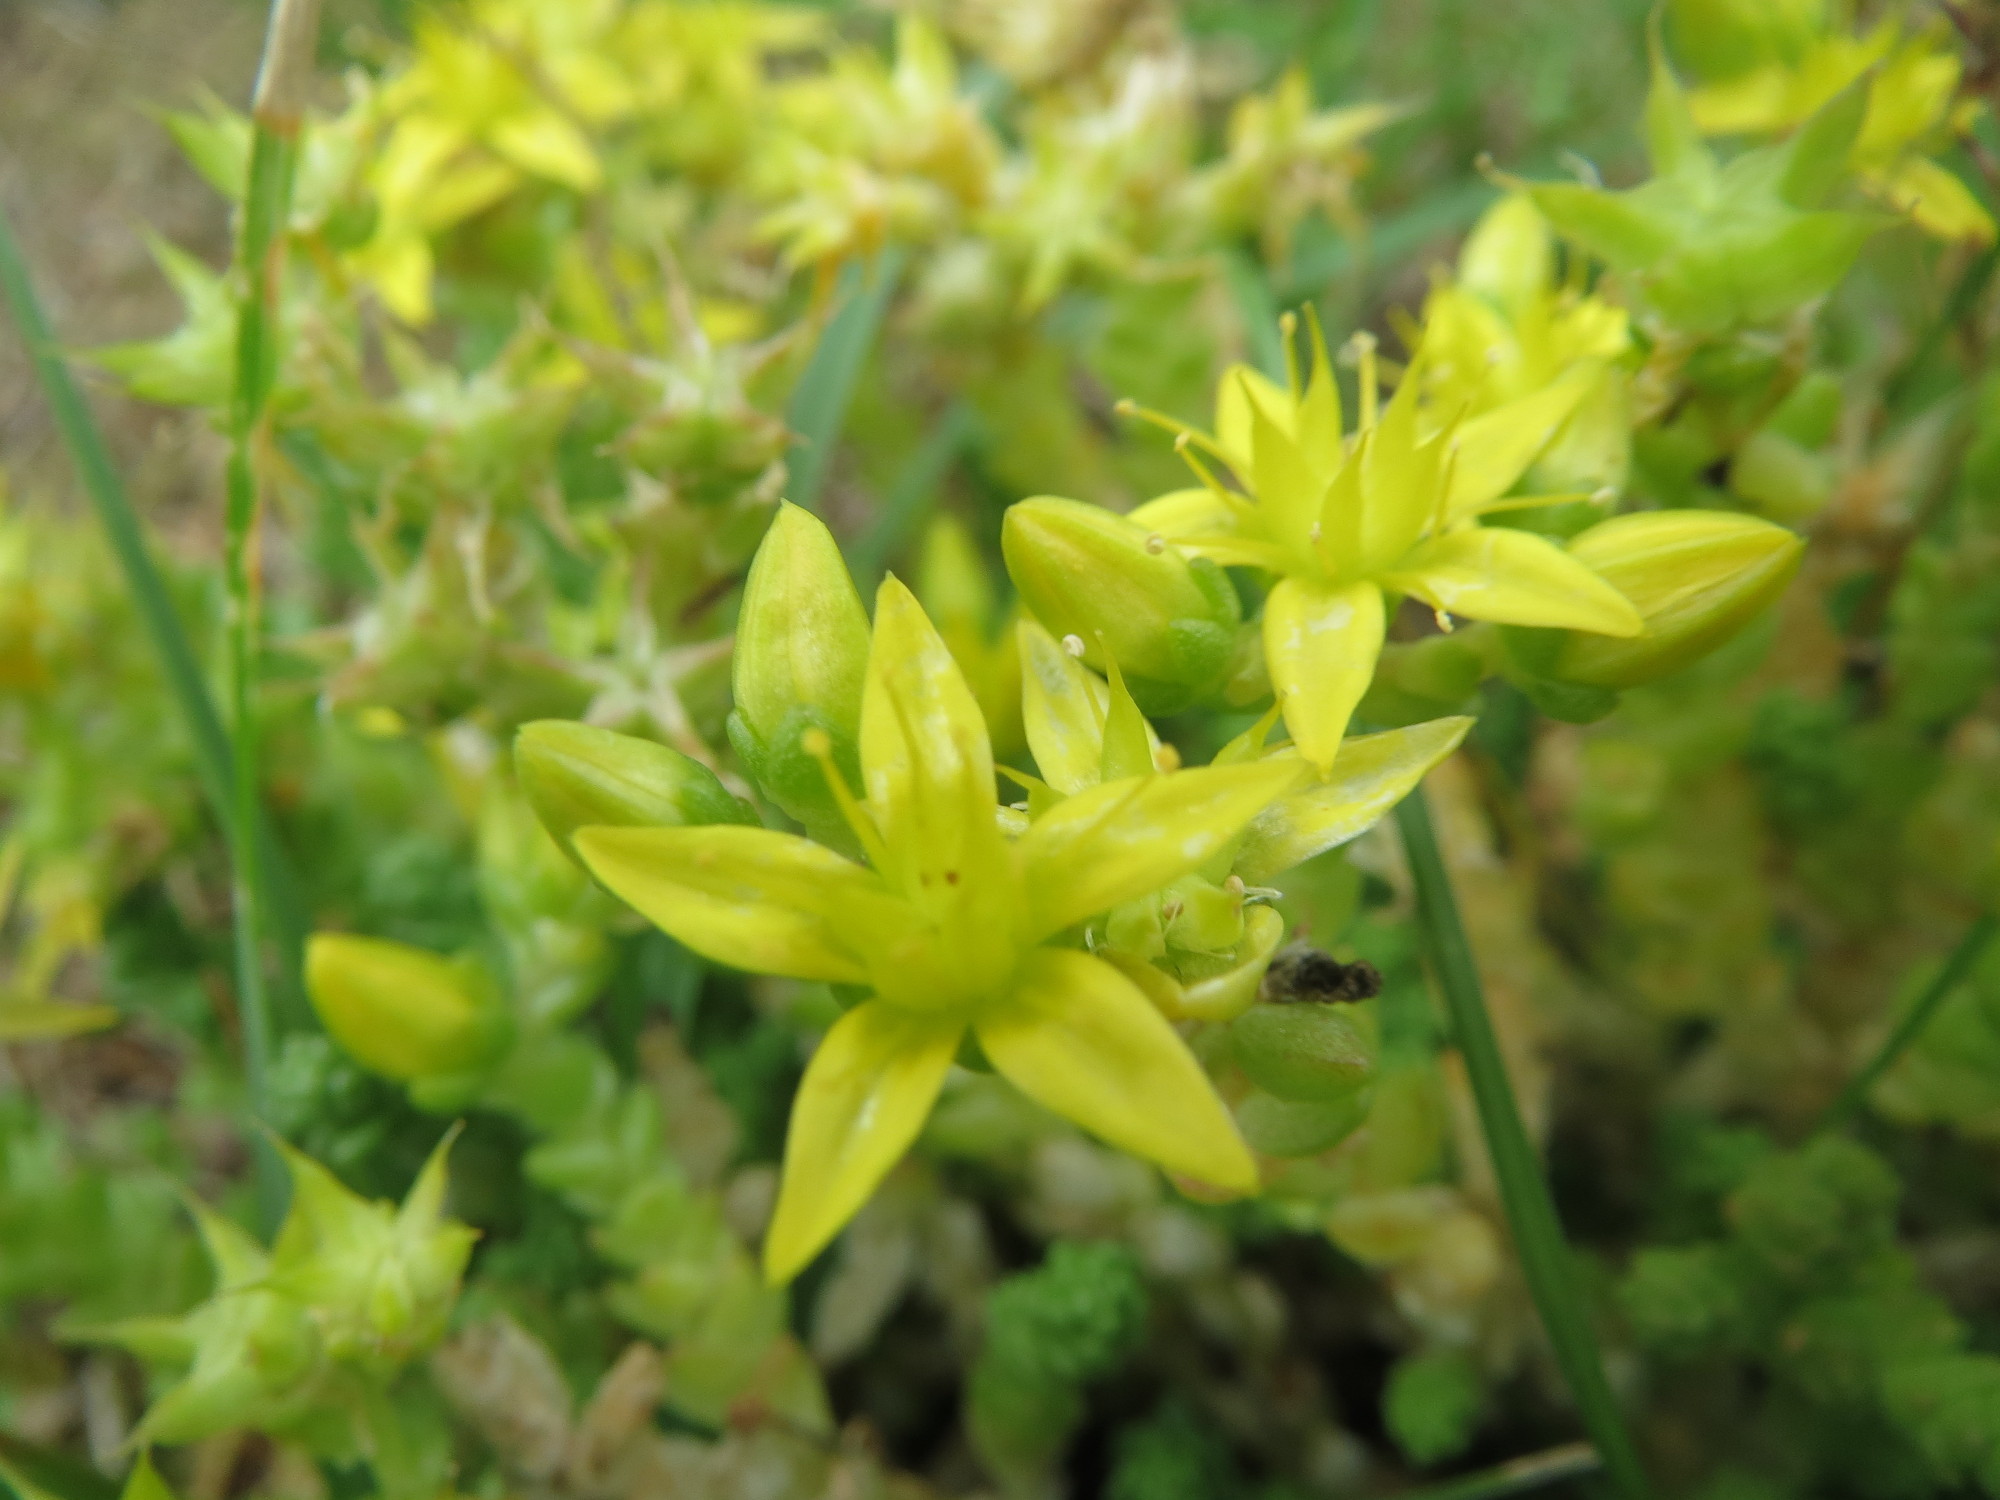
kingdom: Plantae
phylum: Tracheophyta
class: Magnoliopsida
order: Saxifragales
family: Crassulaceae
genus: Sedum
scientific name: Sedum acre
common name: Biting stonecrop
